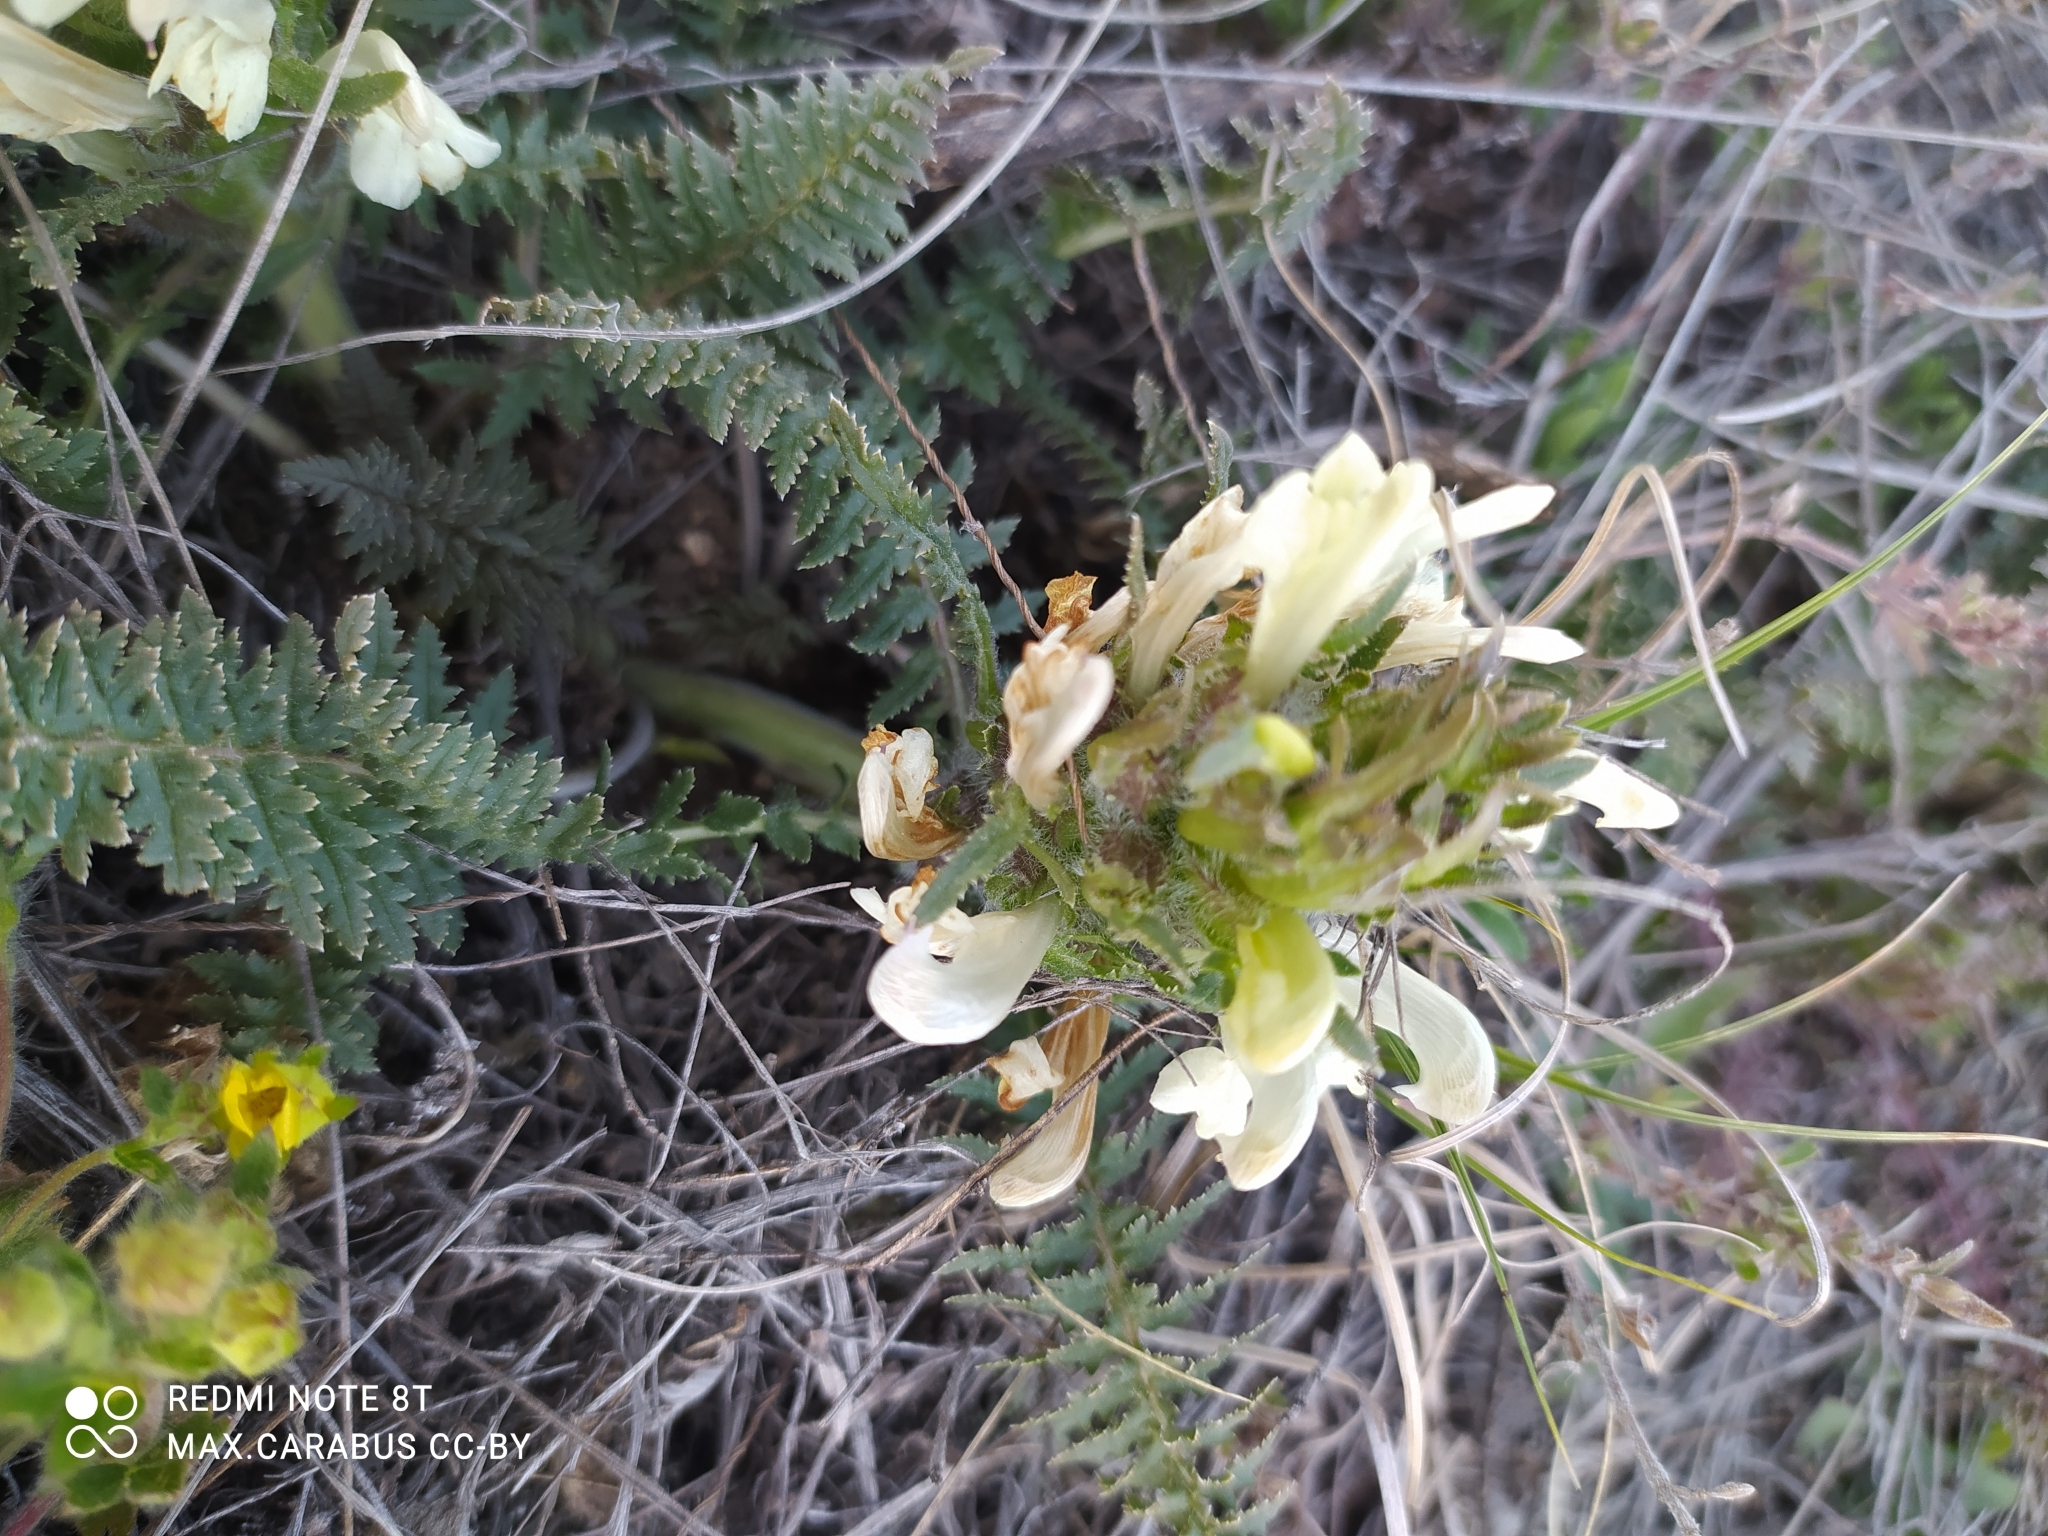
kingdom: Plantae
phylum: Tracheophyta
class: Magnoliopsida
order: Lamiales
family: Orobanchaceae
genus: Pedicularis
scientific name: Pedicularis physocalyx
